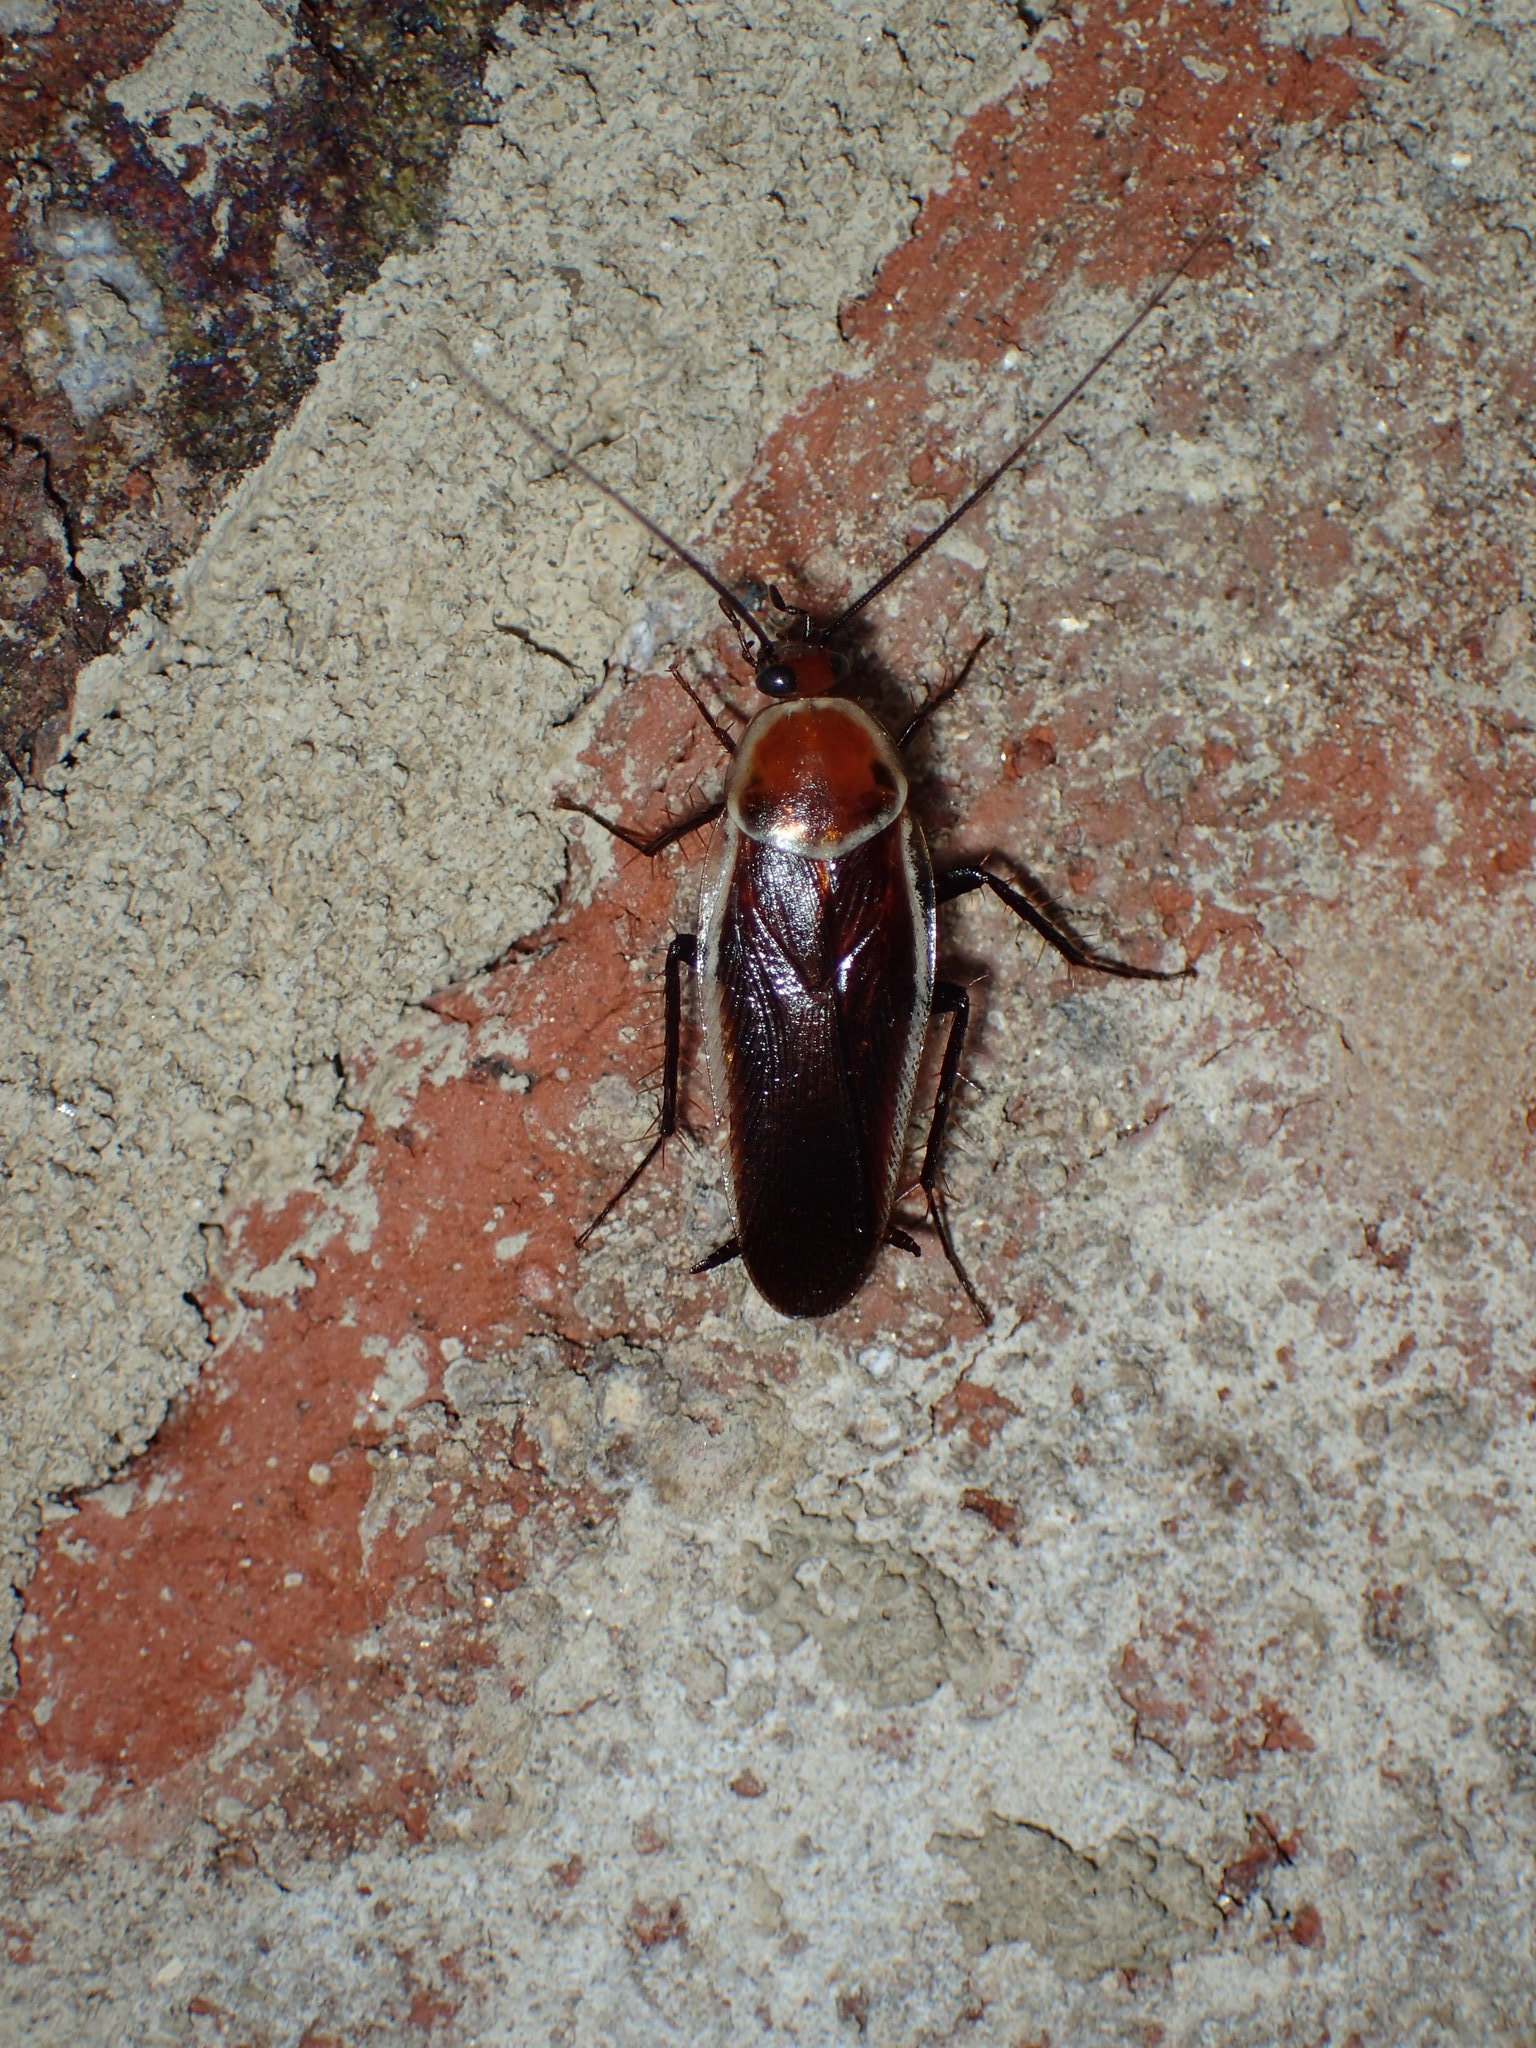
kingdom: Animalia
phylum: Arthropoda
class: Insecta
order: Blattodea
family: Ectobiidae
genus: Pseudomops
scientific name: Pseudomops septentrionalis
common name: Pale-bordered field cockroach
